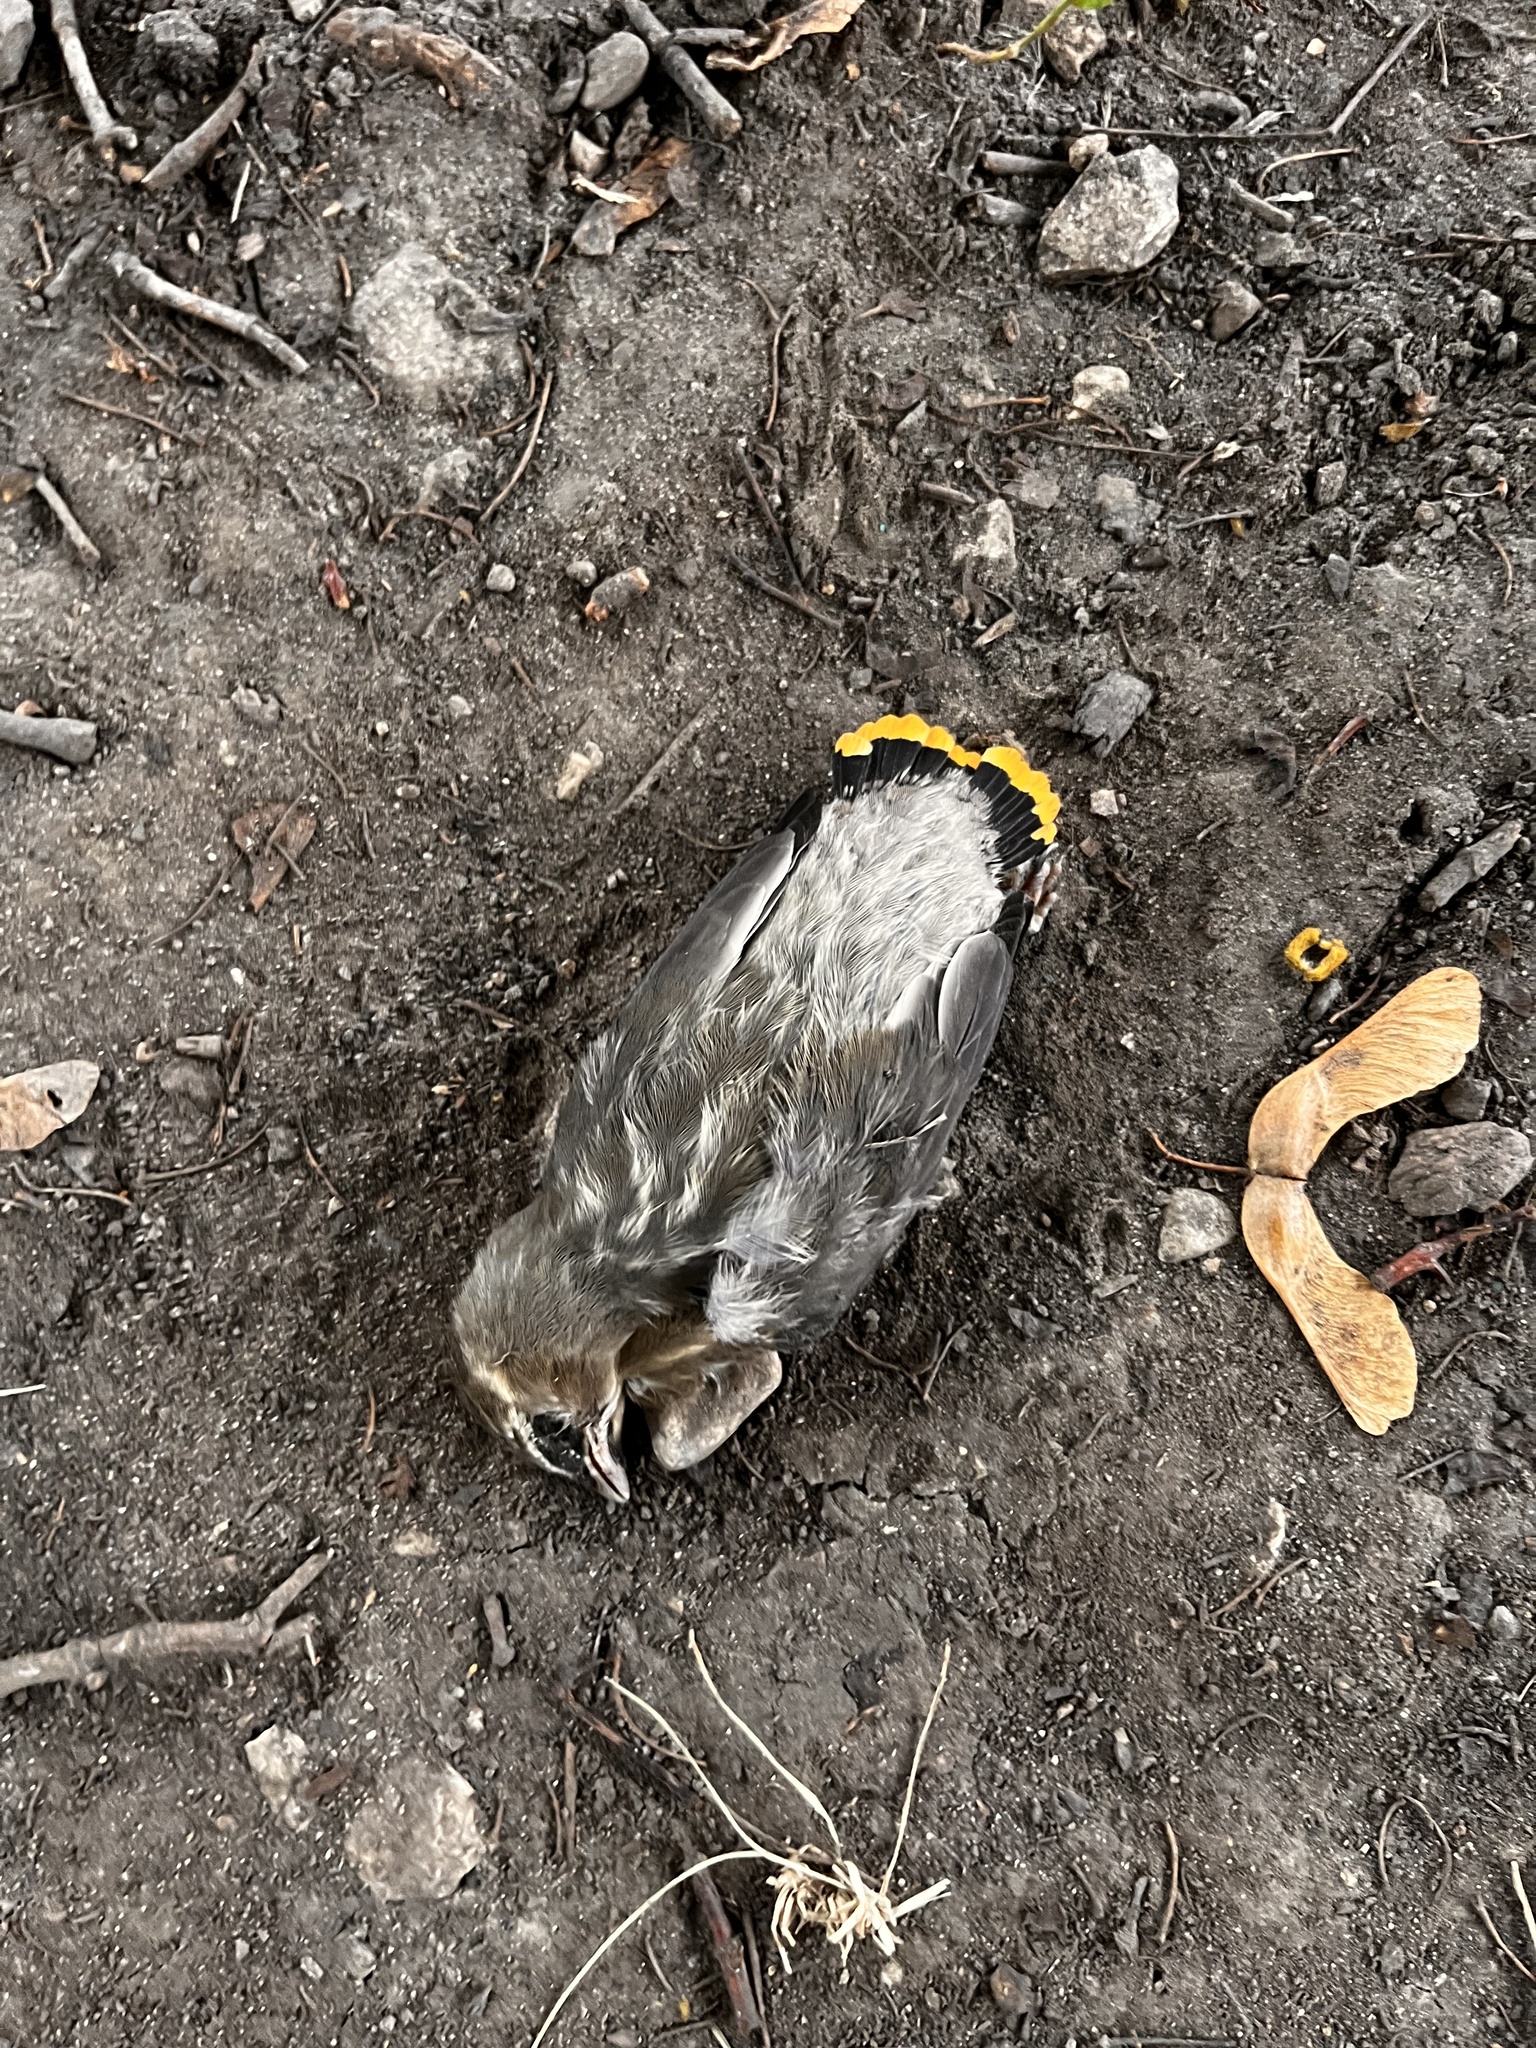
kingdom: Animalia
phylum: Chordata
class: Aves
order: Passeriformes
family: Bombycillidae
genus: Bombycilla
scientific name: Bombycilla cedrorum
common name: Cedar waxwing
